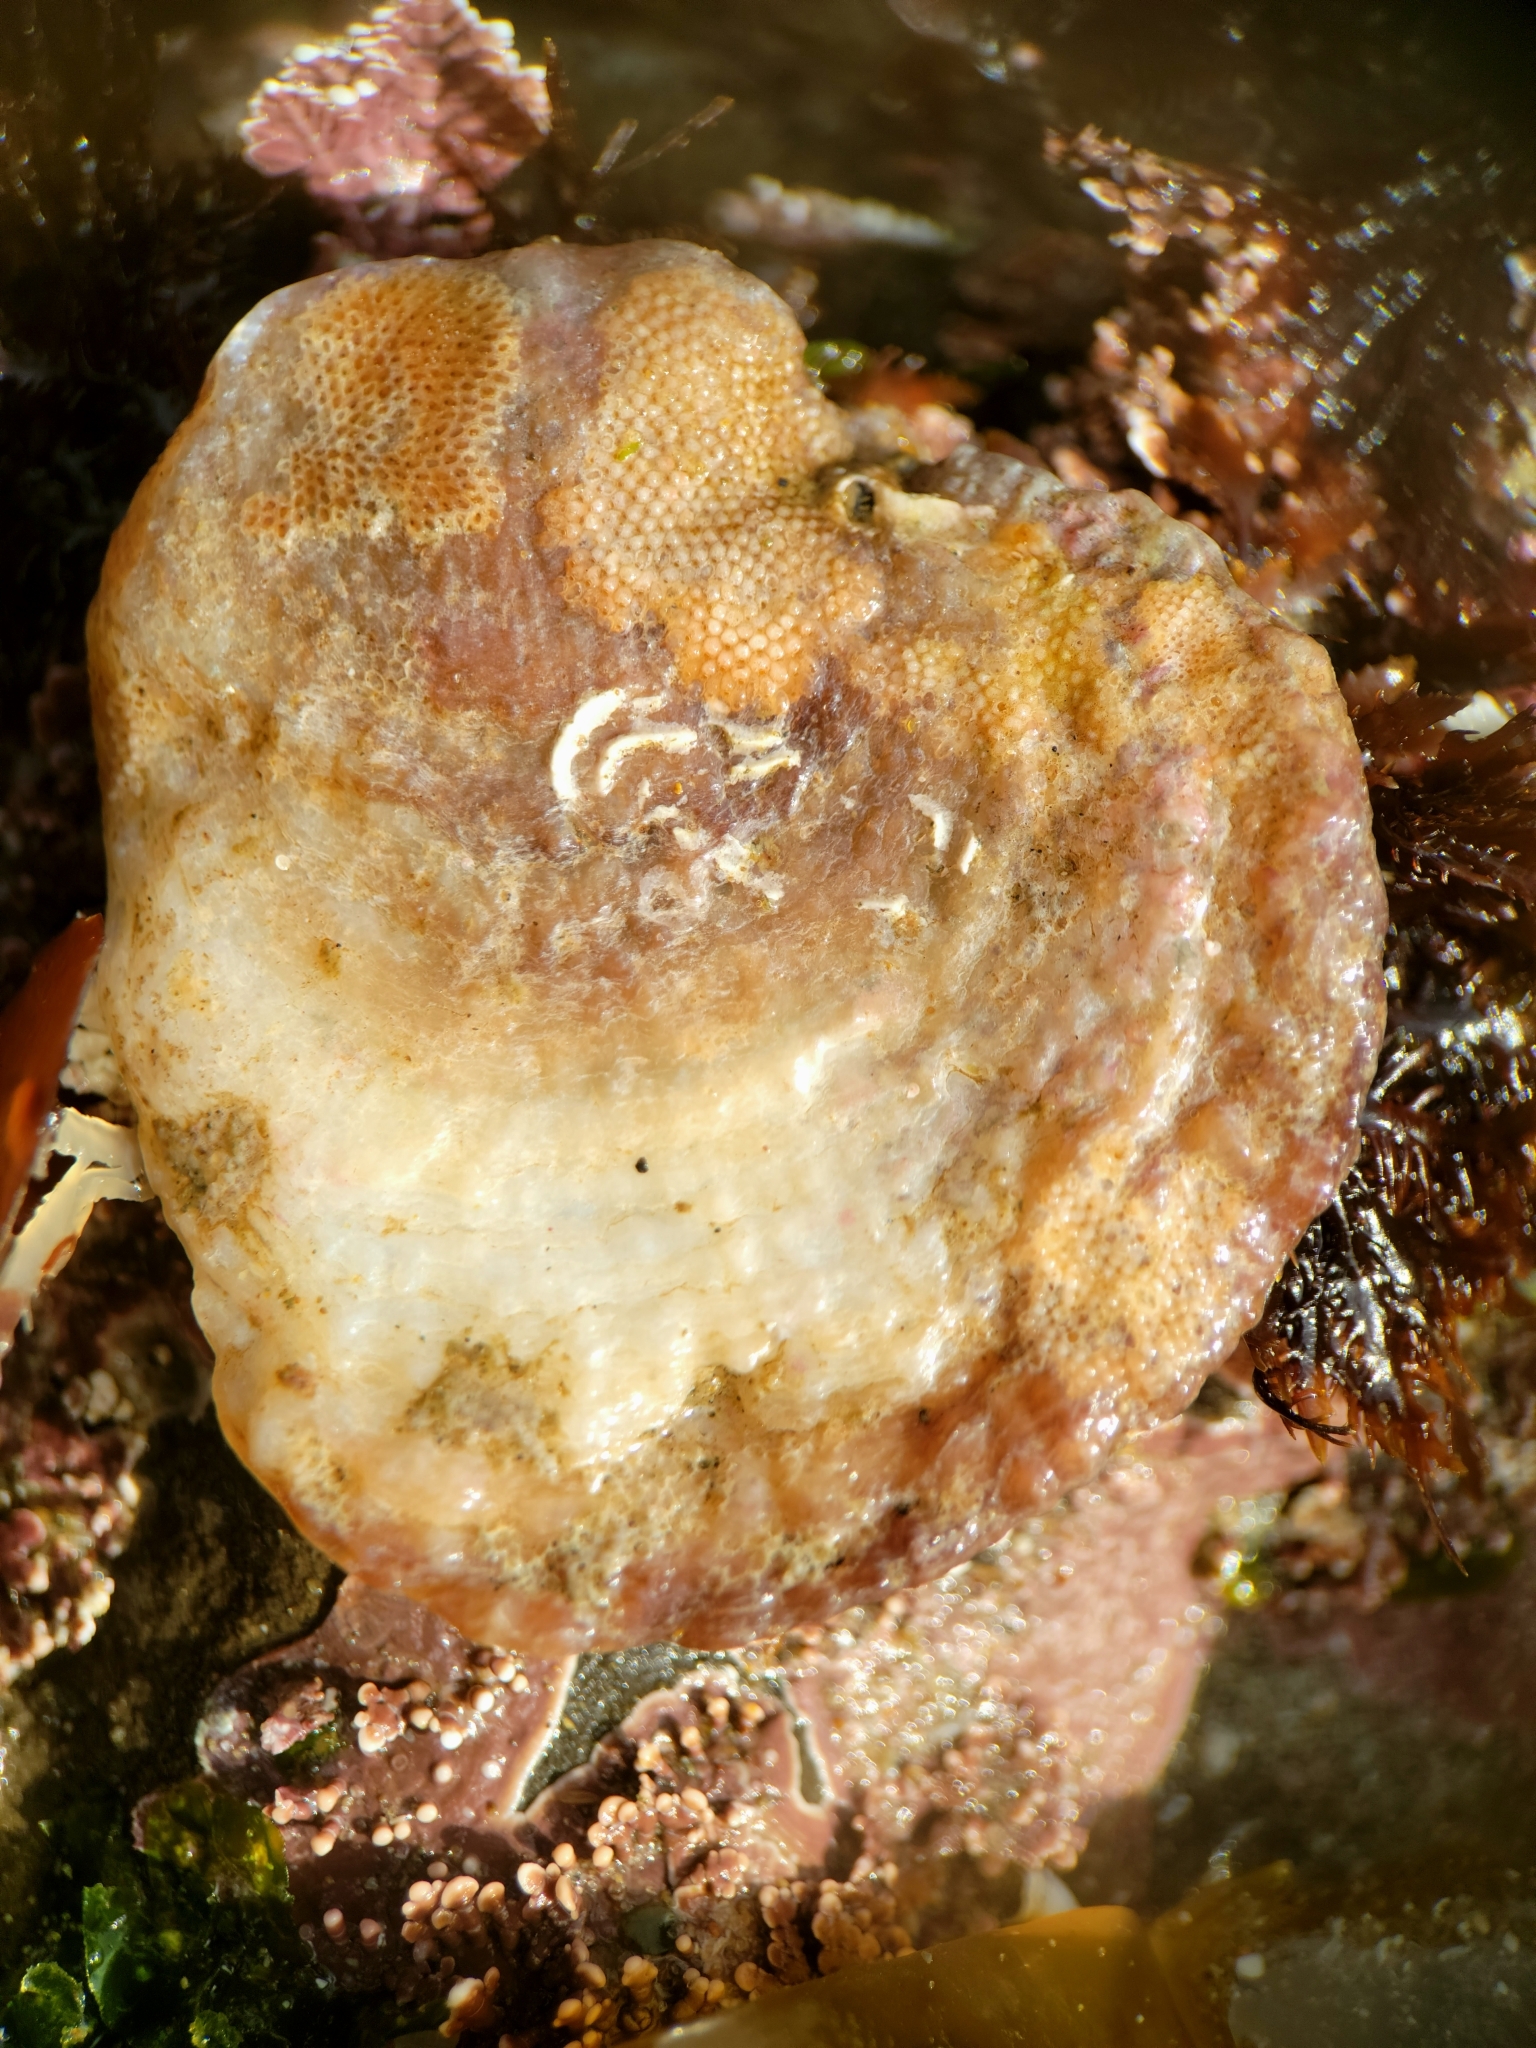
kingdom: Animalia
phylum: Mollusca
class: Bivalvia
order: Pectinida
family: Anomiidae
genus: Pododesmus
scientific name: Pododesmus macrochisma
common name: Alaska jingle
